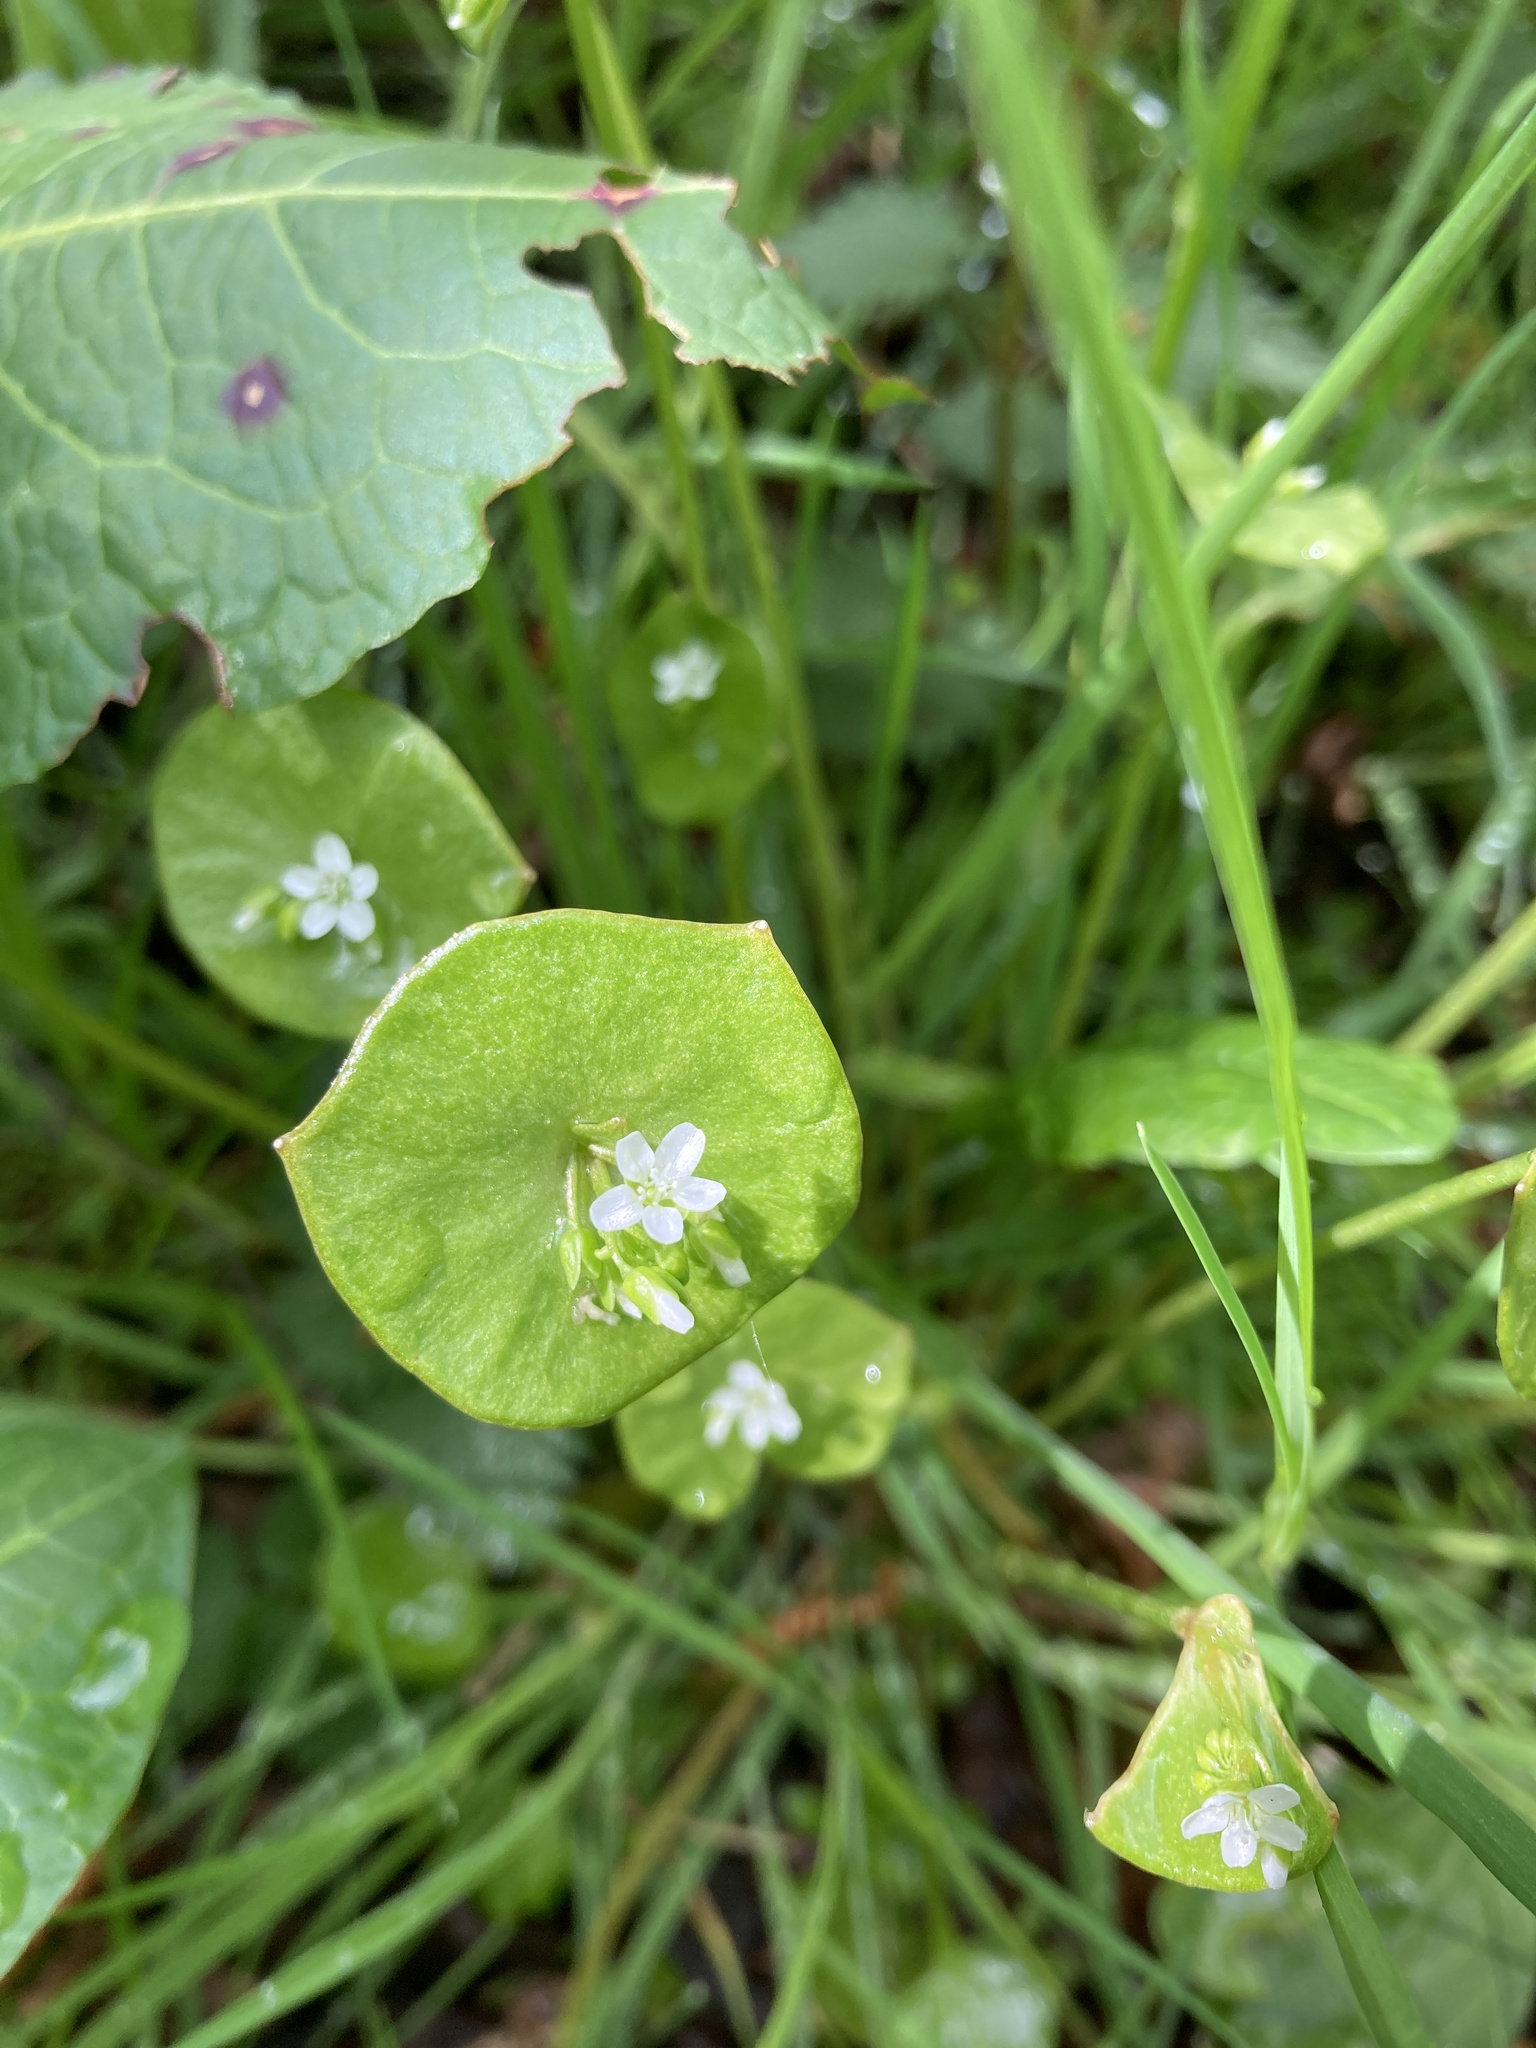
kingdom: Plantae
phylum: Tracheophyta
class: Magnoliopsida
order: Caryophyllales
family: Montiaceae
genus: Claytonia
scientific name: Claytonia perfoliata
